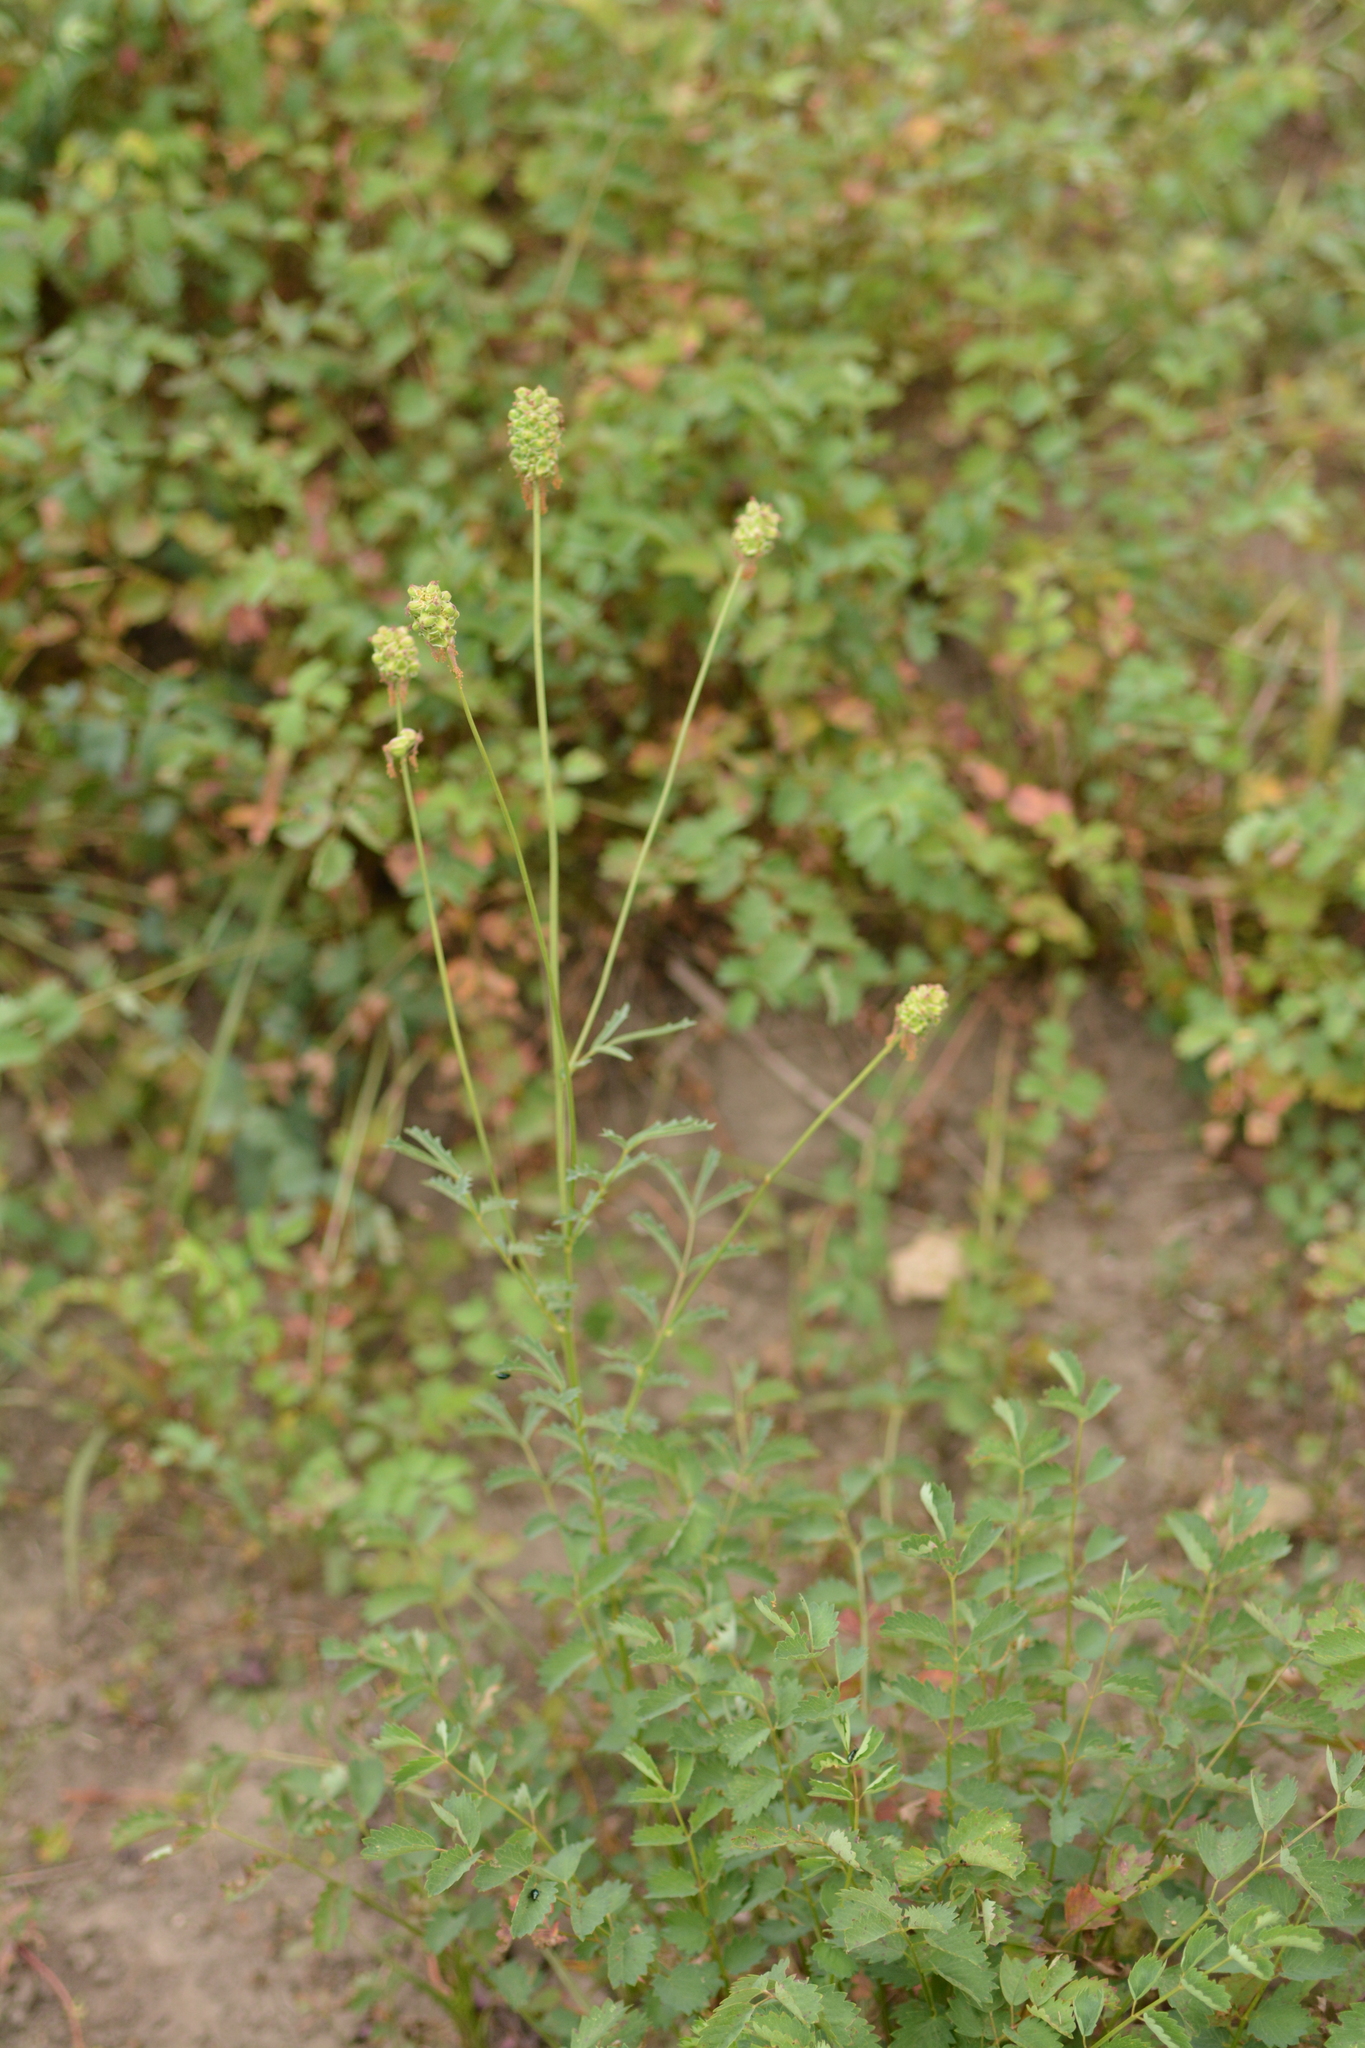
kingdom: Plantae
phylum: Tracheophyta
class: Magnoliopsida
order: Rosales
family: Rosaceae
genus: Poterium
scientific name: Poterium sanguisorba
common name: Salad burnet
